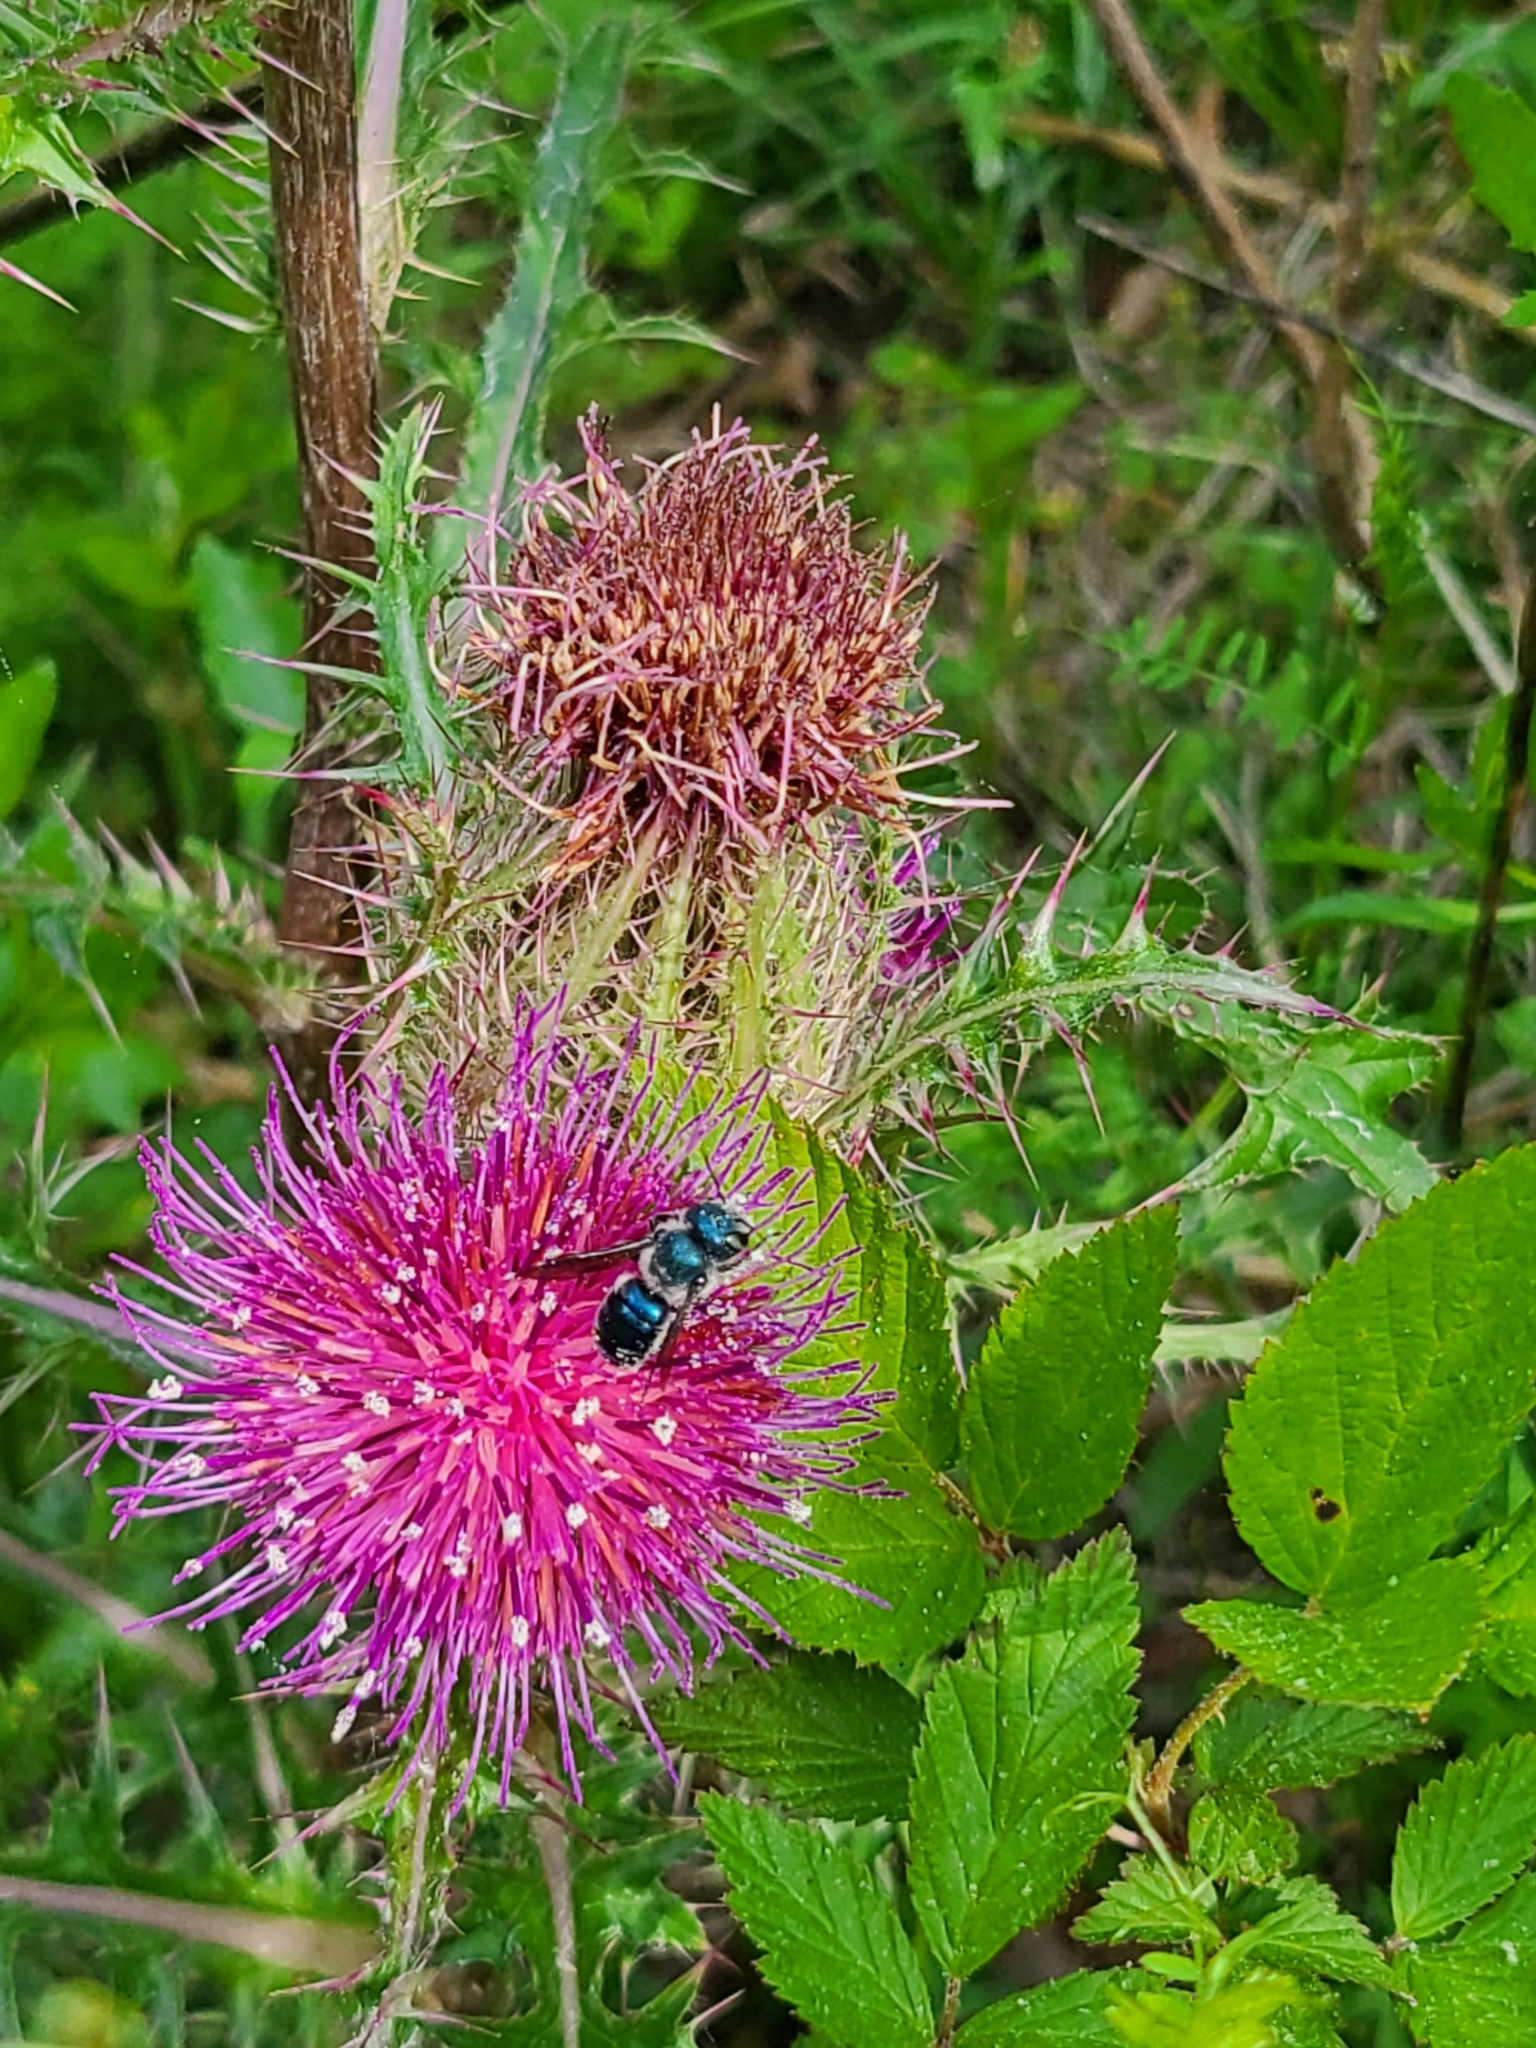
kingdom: Animalia
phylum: Arthropoda
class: Insecta
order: Hymenoptera
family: Megachilidae
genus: Osmia
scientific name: Osmia chalybea
